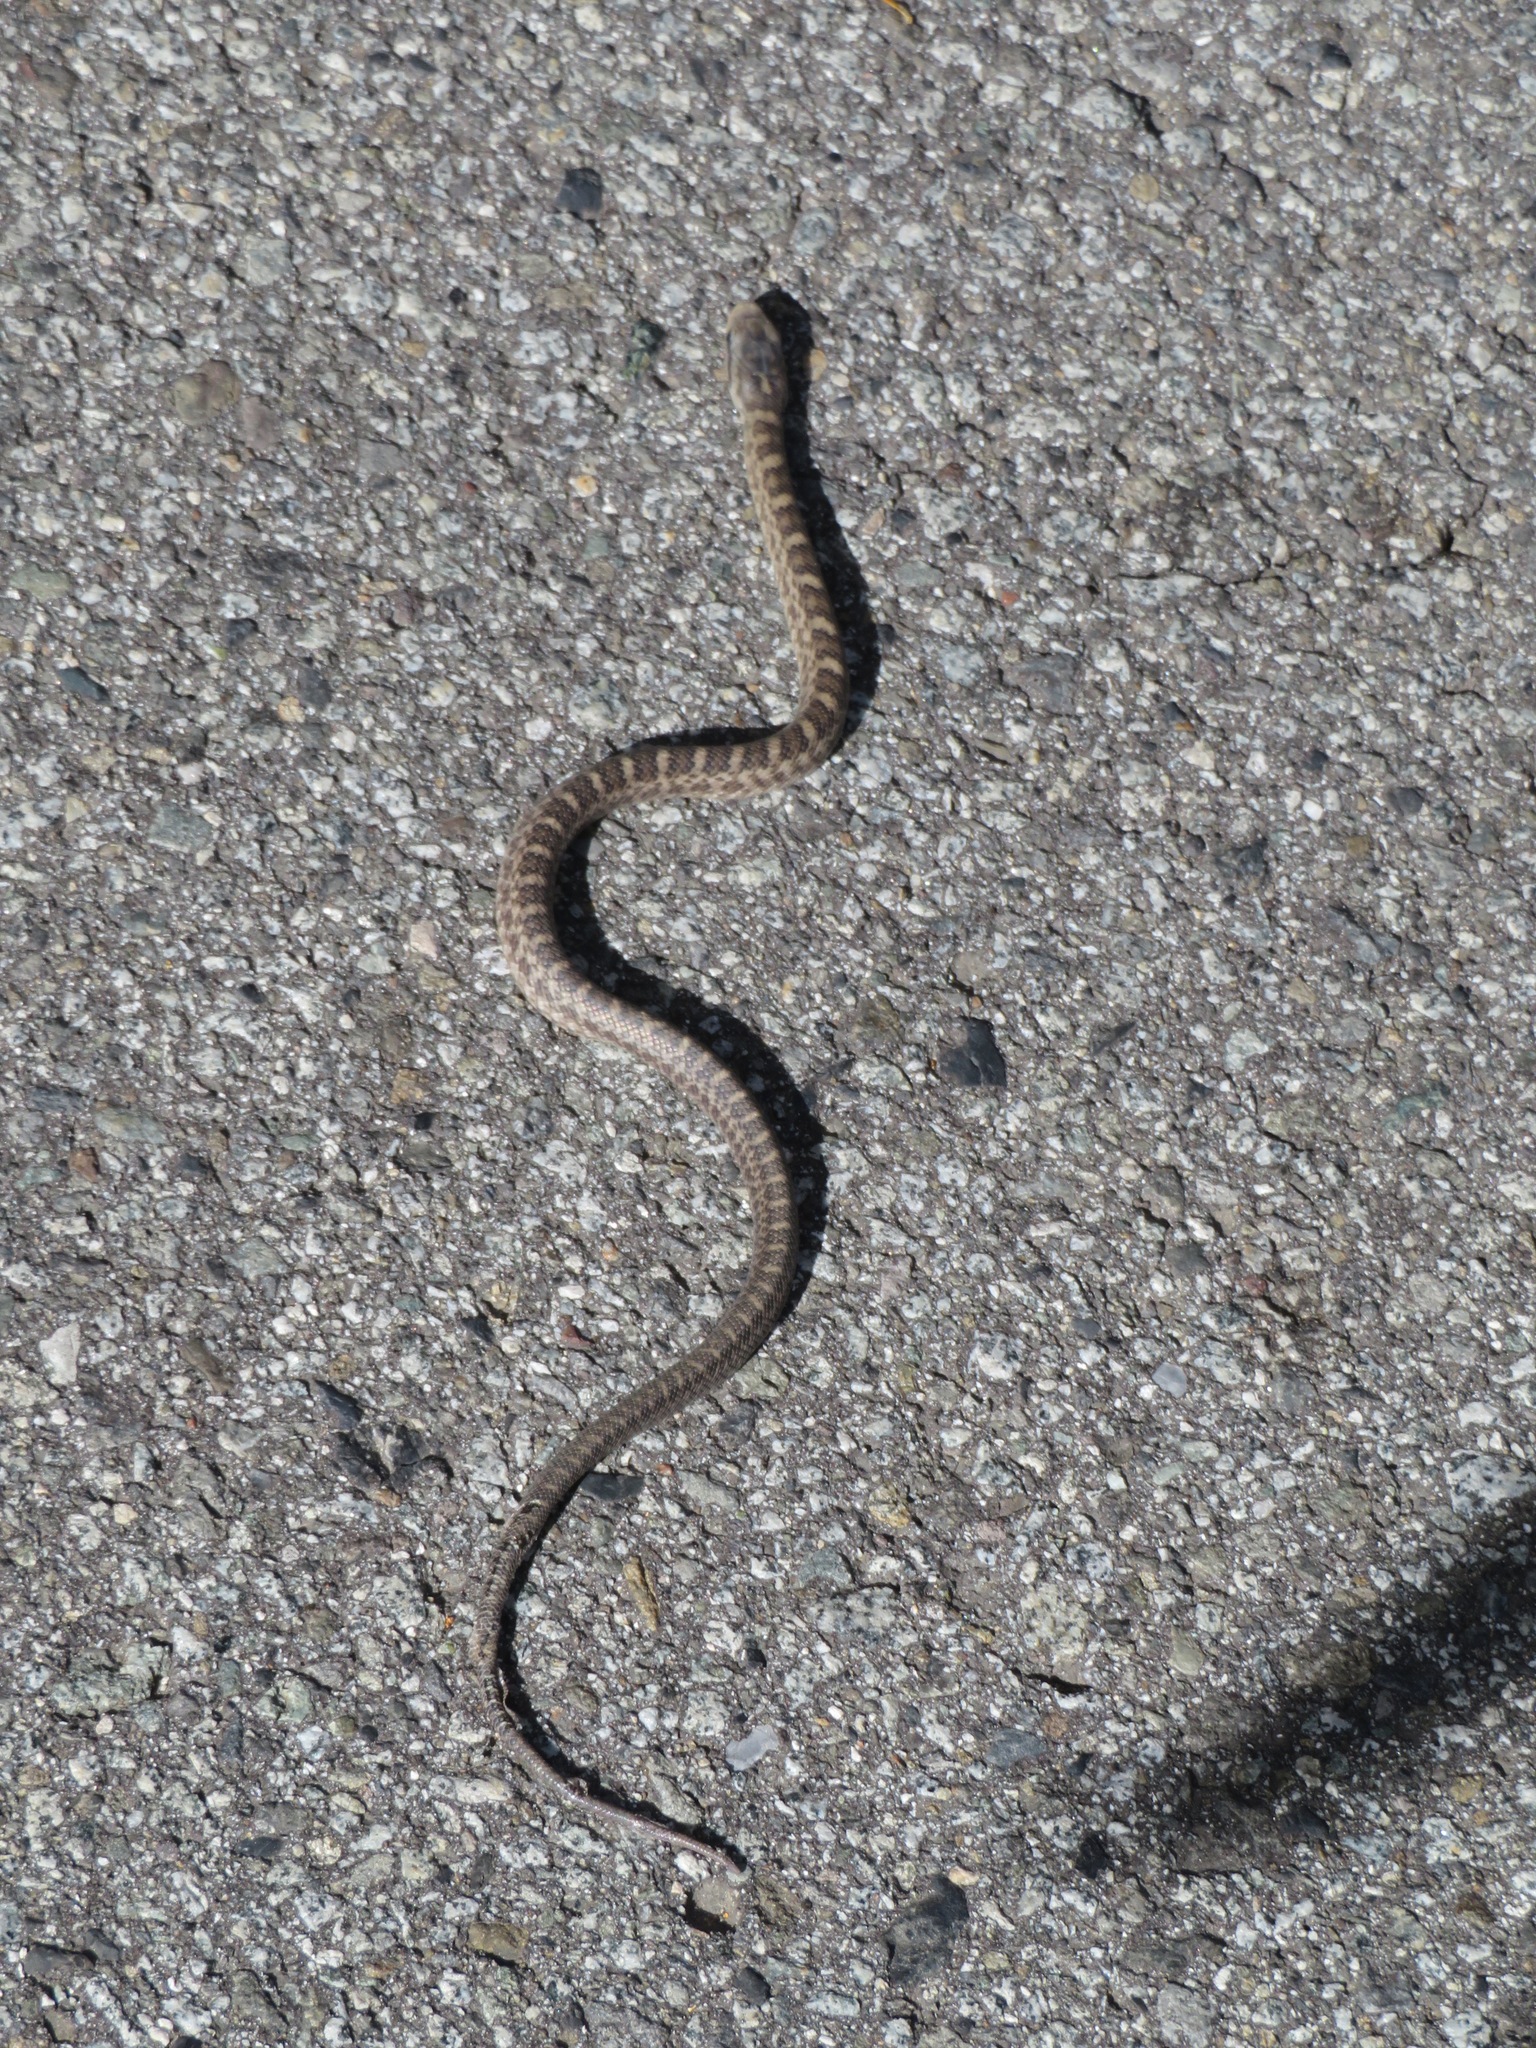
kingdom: Animalia
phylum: Chordata
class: Squamata
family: Colubridae
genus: Elaphe
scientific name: Elaphe climacophora
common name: Japanese ratsnake
